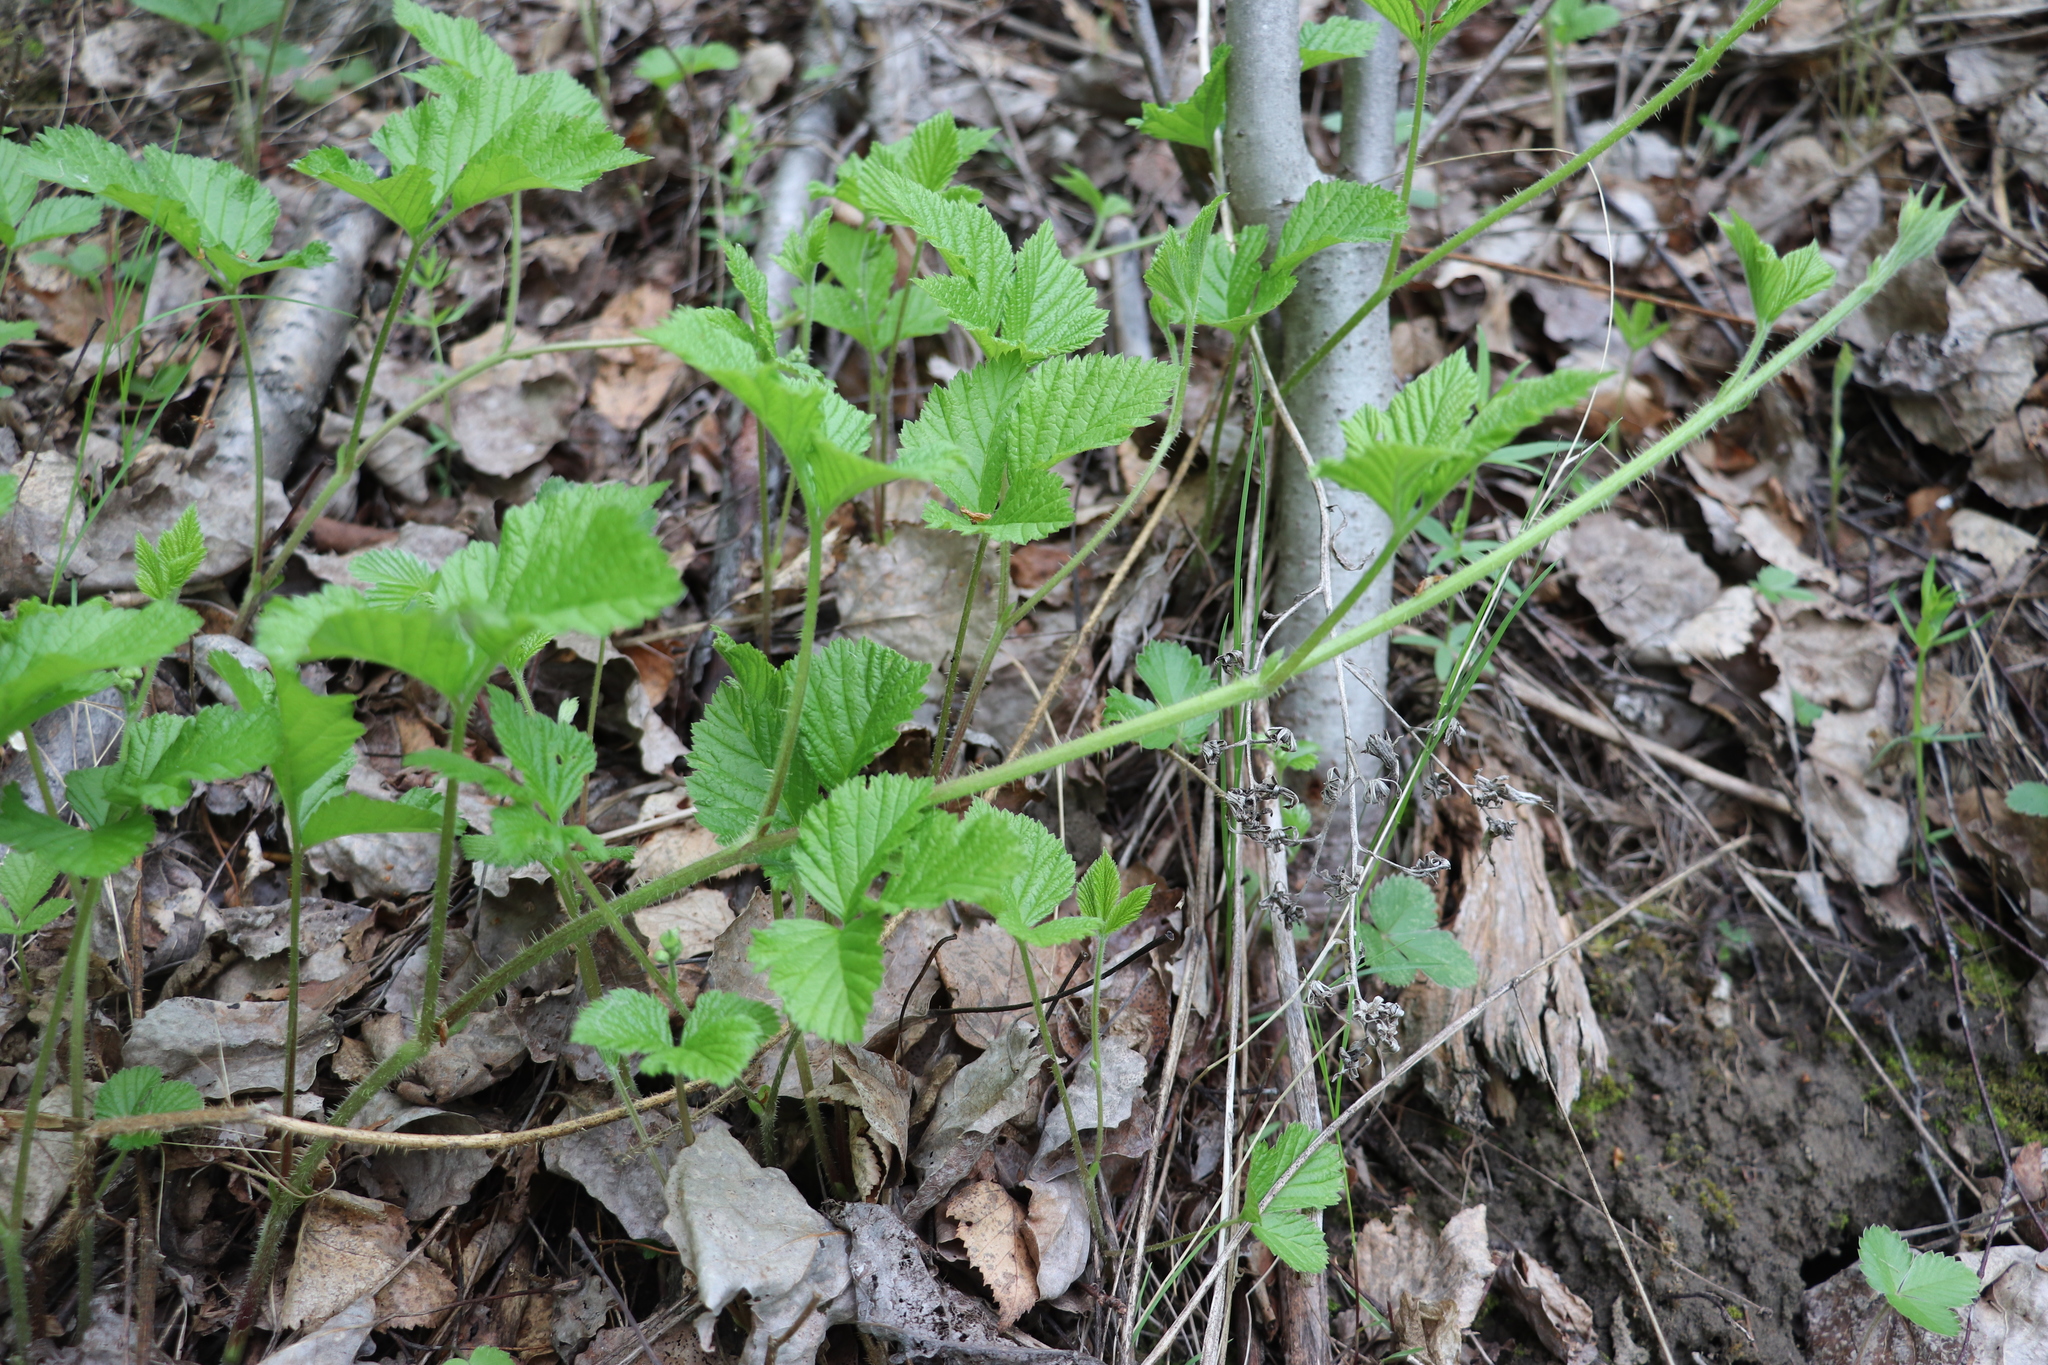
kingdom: Plantae
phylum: Tracheophyta
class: Magnoliopsida
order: Rosales
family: Rosaceae
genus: Rubus
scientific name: Rubus saxatilis
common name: Stone bramble
